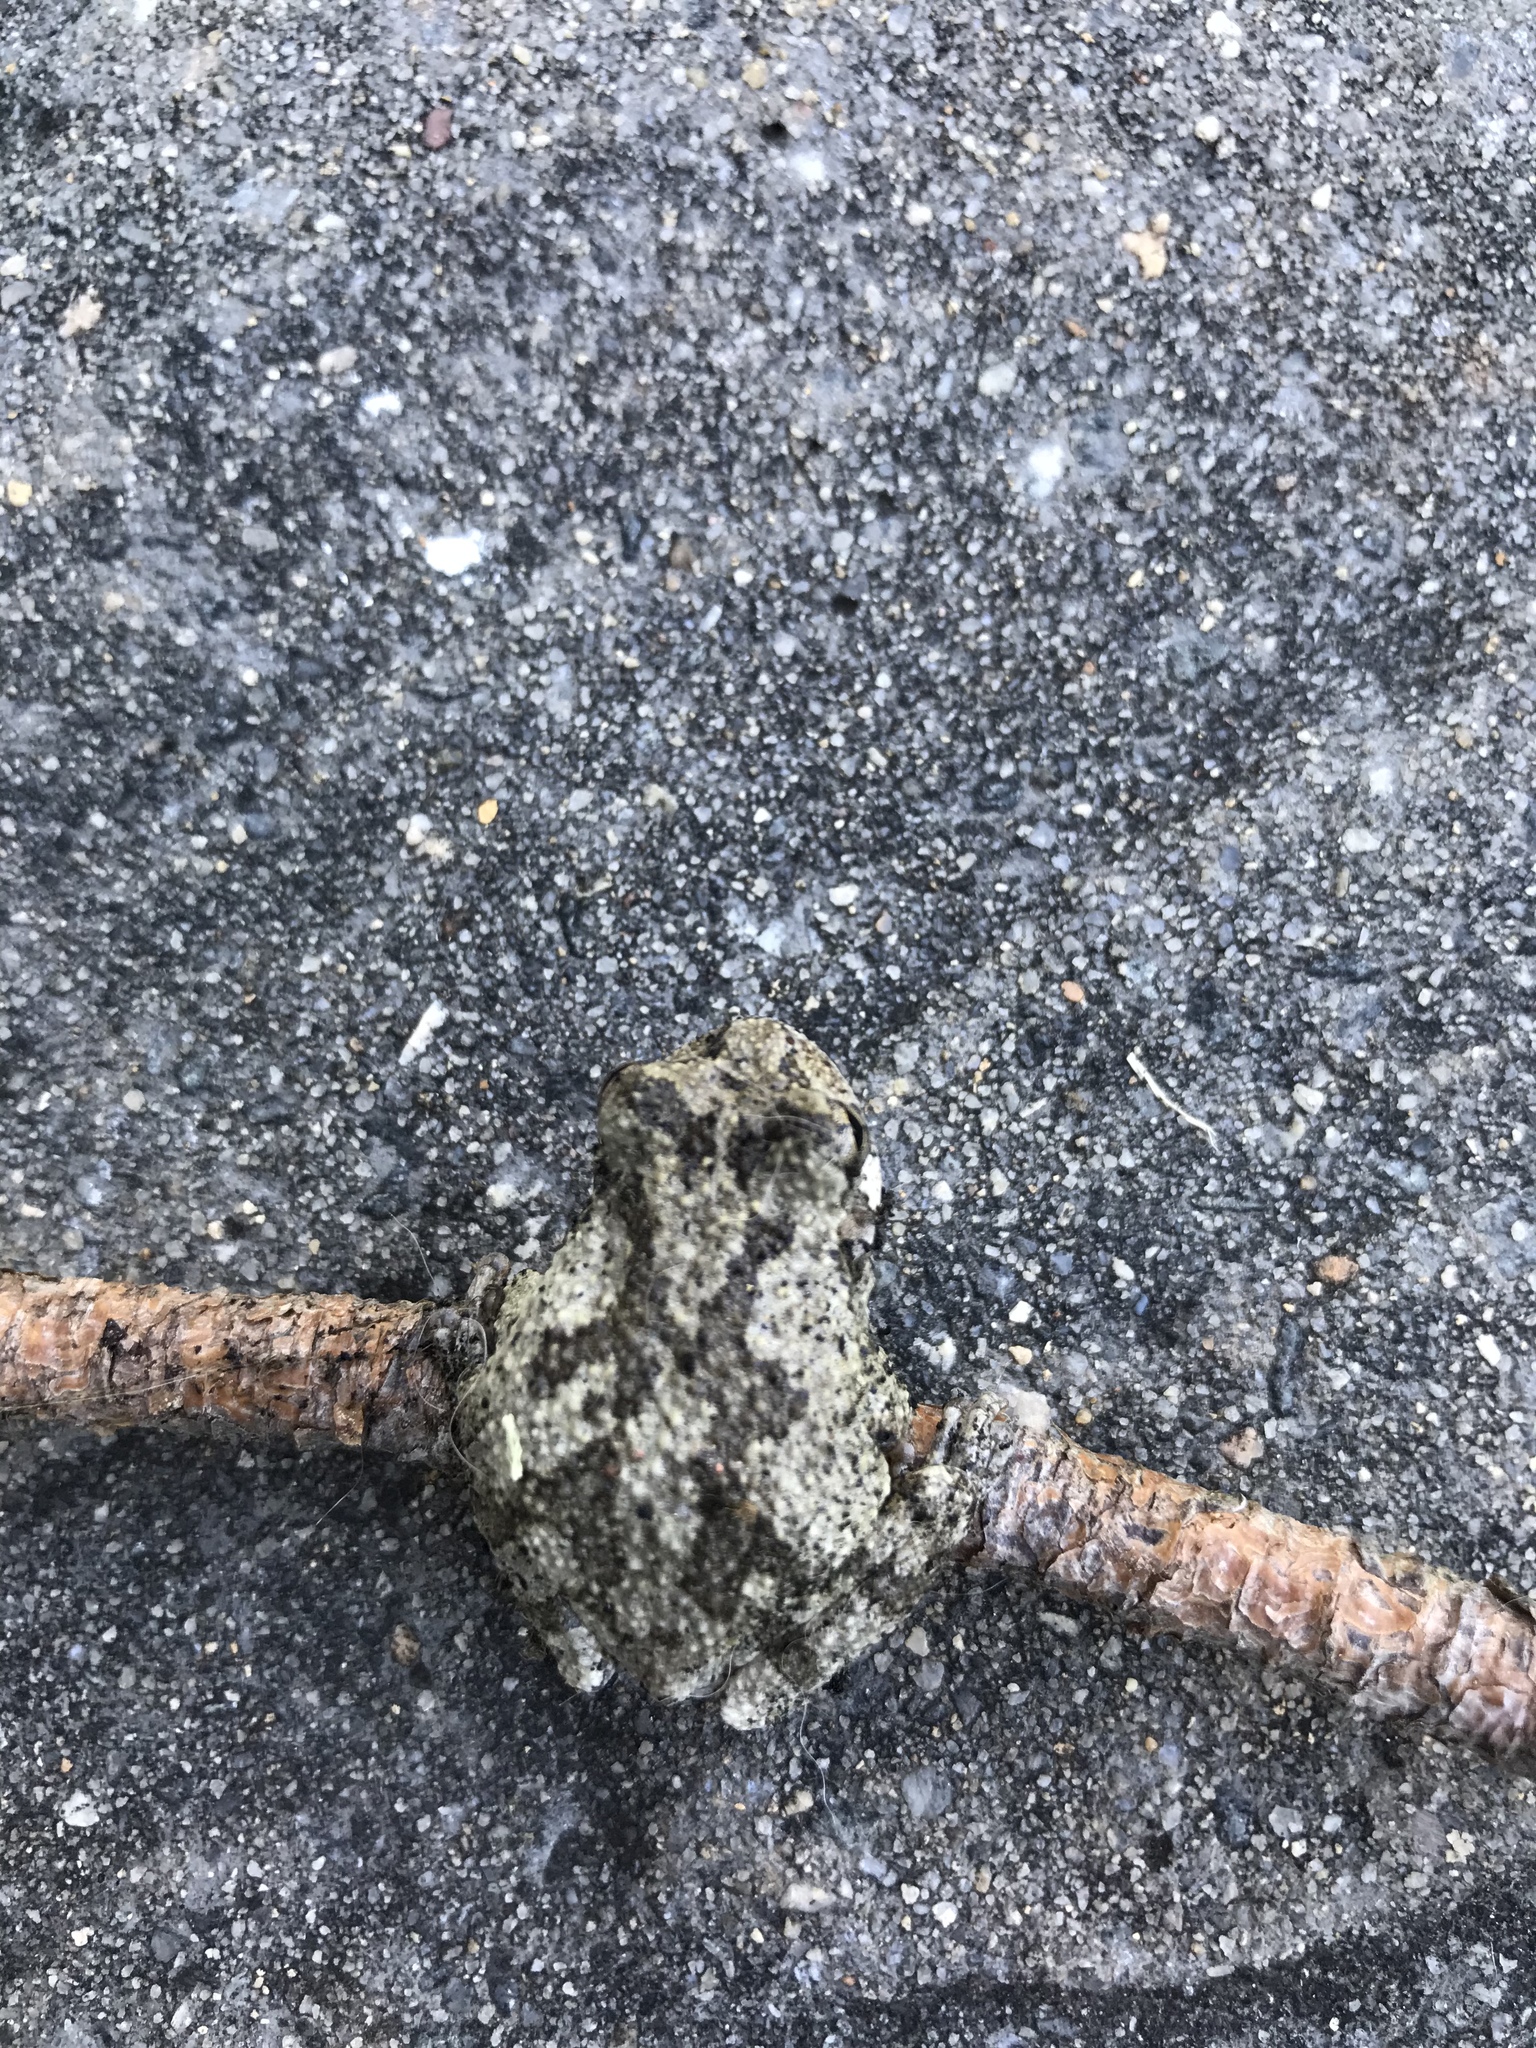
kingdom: Animalia
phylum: Chordata
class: Amphibia
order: Anura
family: Hylidae
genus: Hyla
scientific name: Hyla
